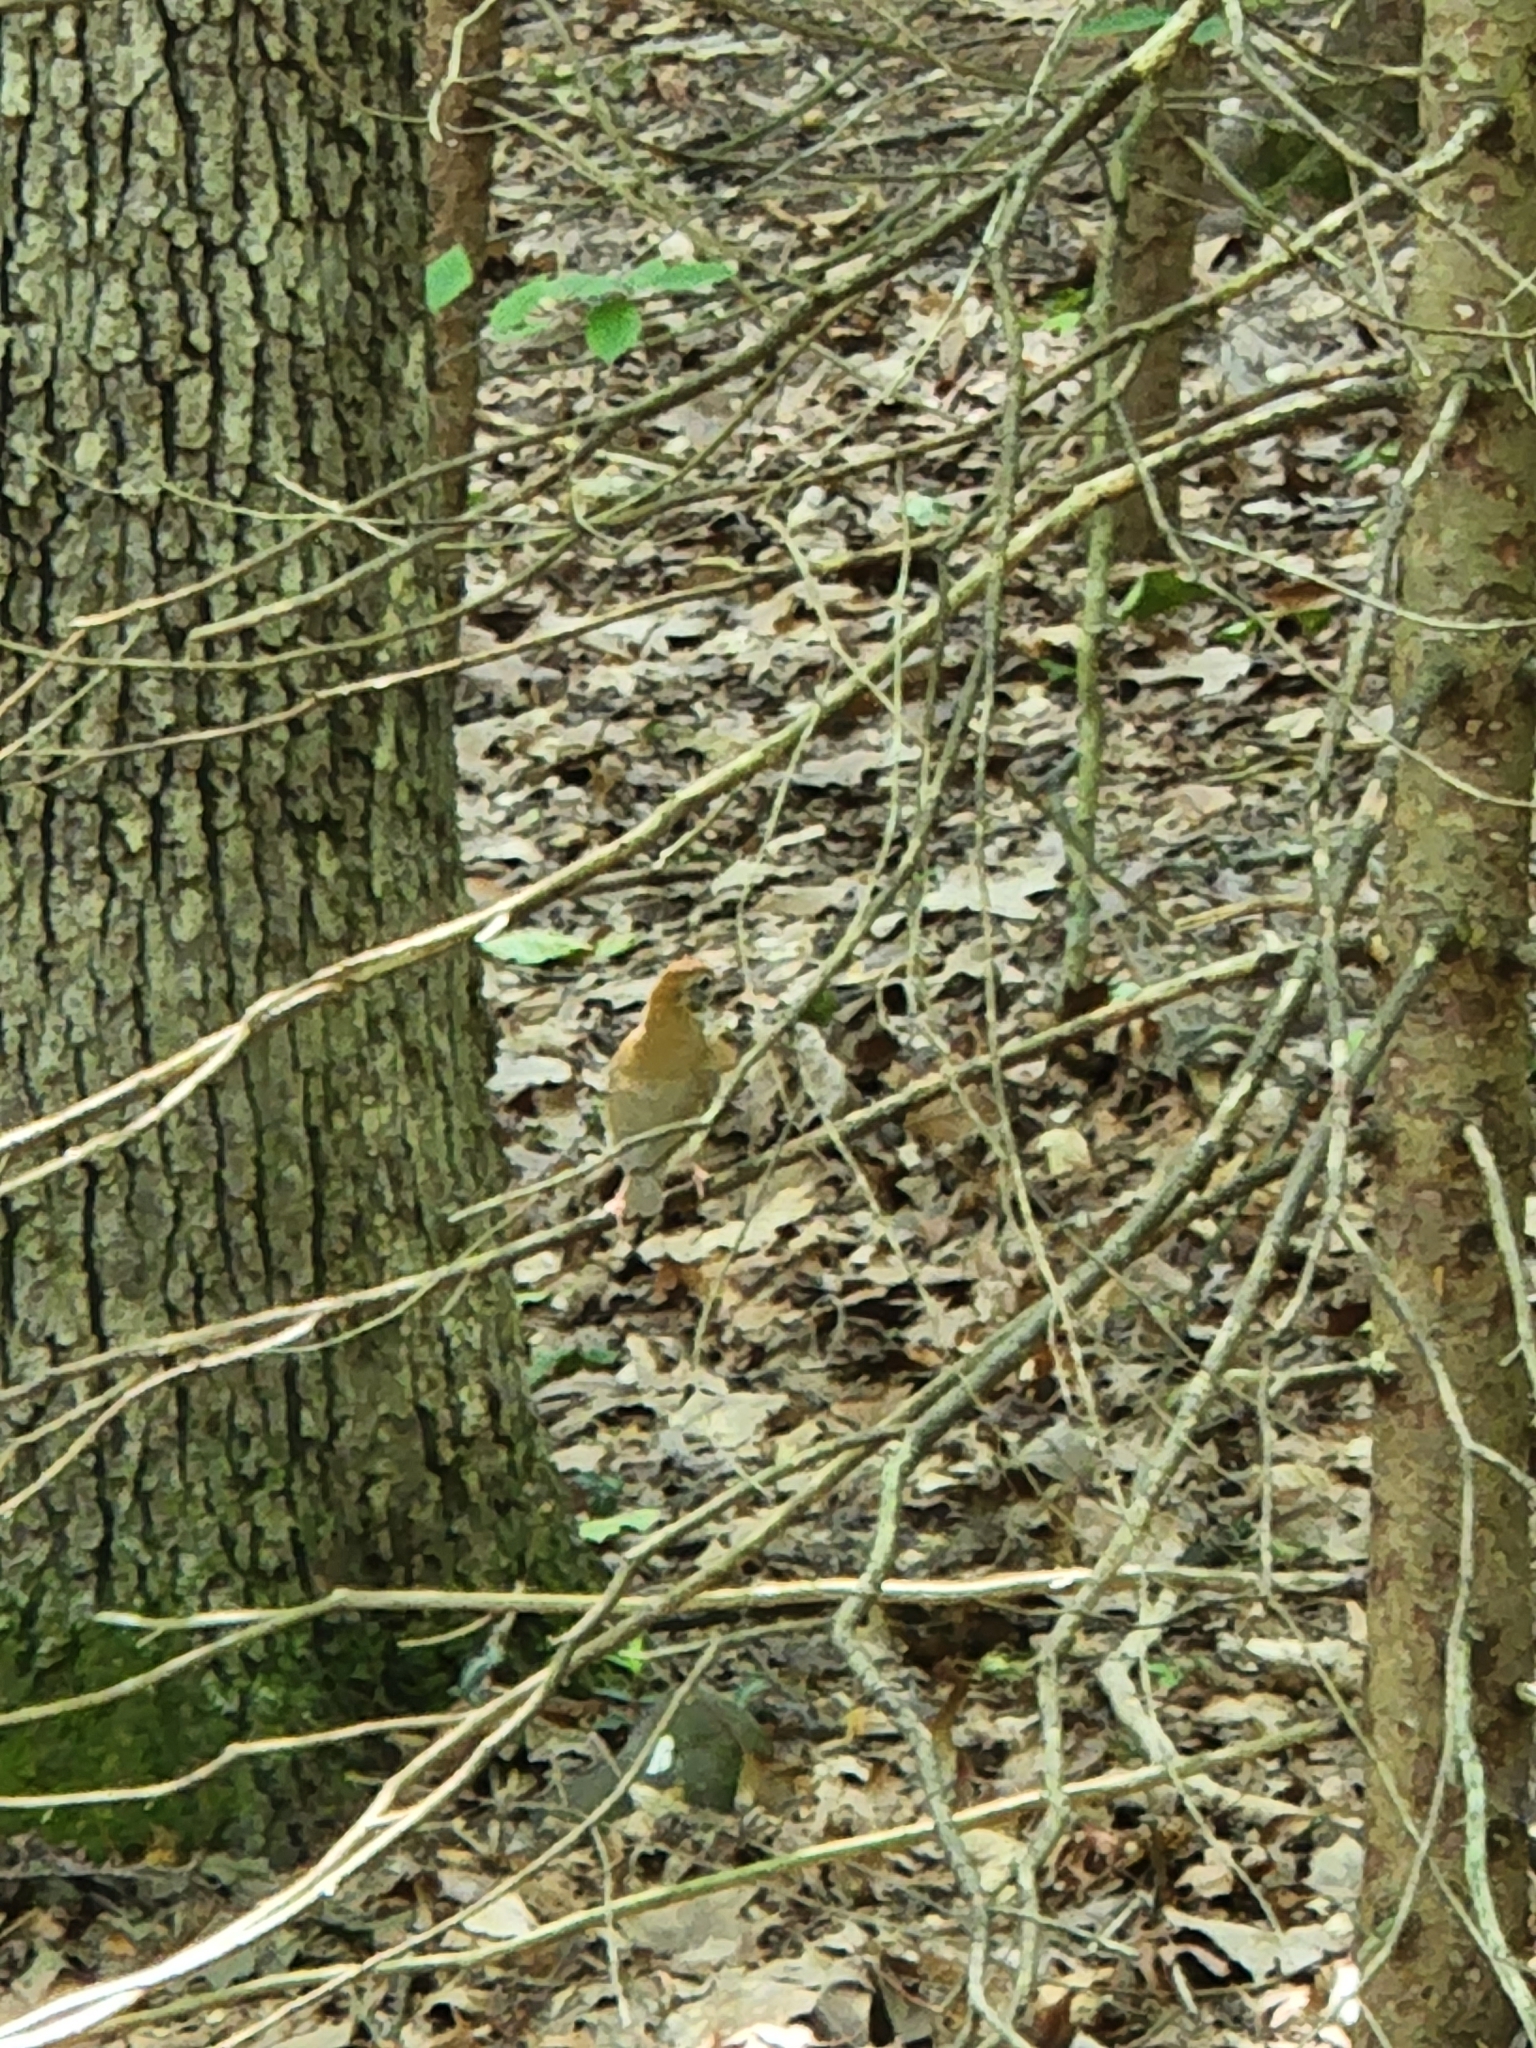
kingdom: Animalia
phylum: Chordata
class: Aves
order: Passeriformes
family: Turdidae
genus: Hylocichla
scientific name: Hylocichla mustelina
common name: Wood thrush
